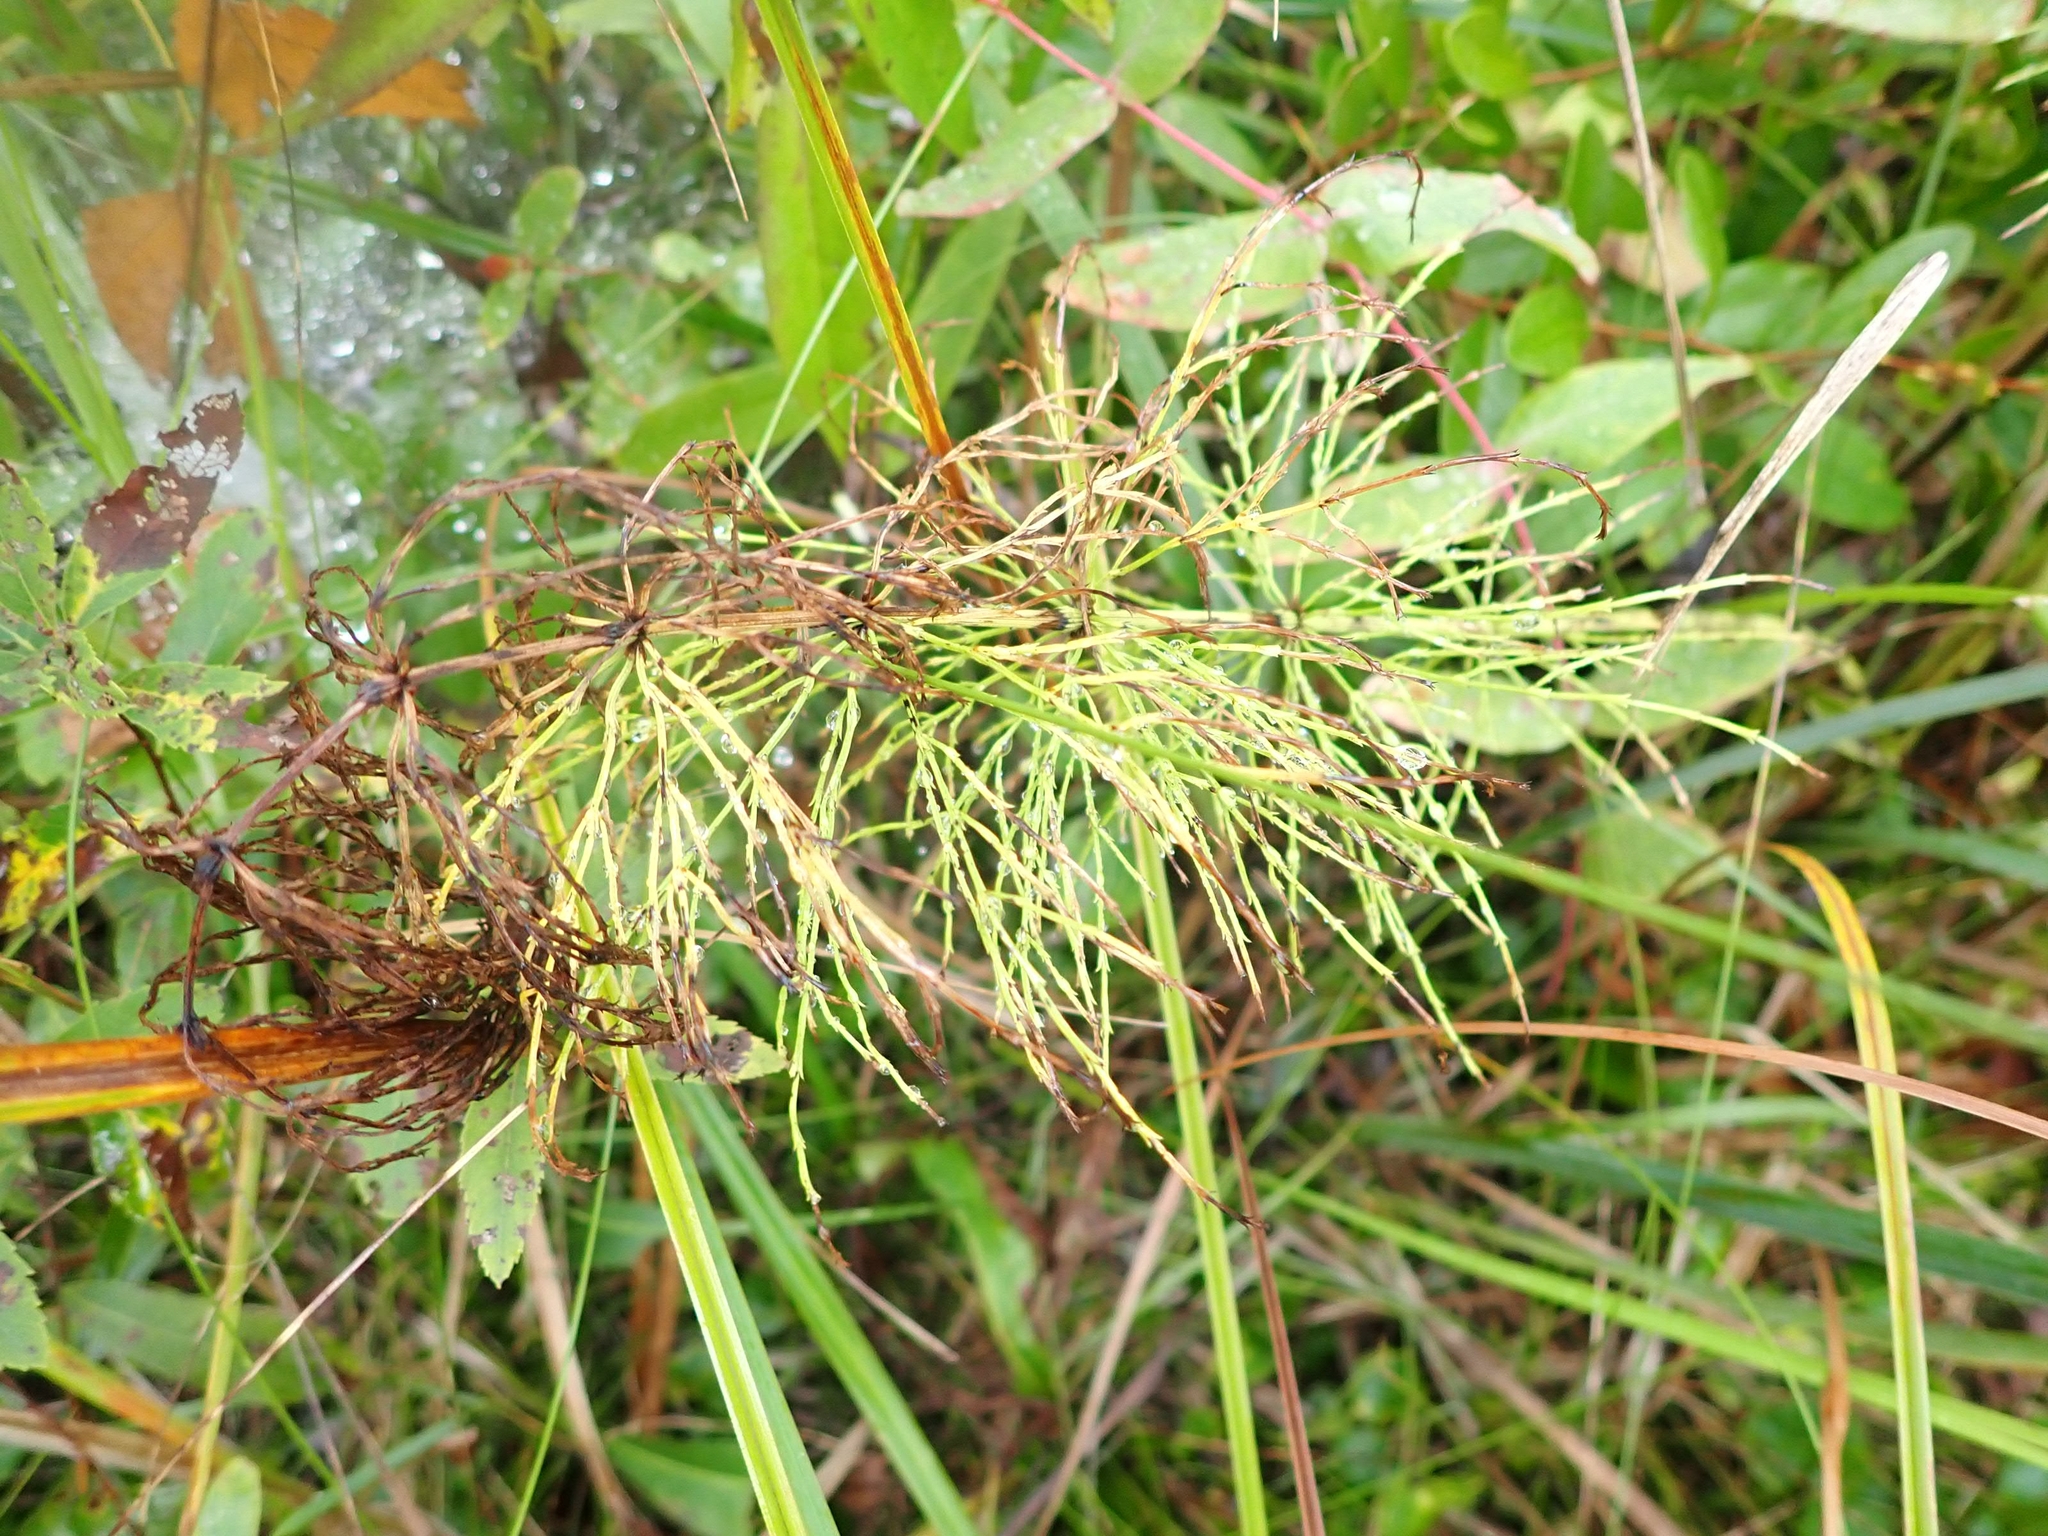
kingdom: Plantae
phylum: Tracheophyta
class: Polypodiopsida
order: Equisetales
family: Equisetaceae
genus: Equisetum
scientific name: Equisetum sylvaticum
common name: Wood horsetail
